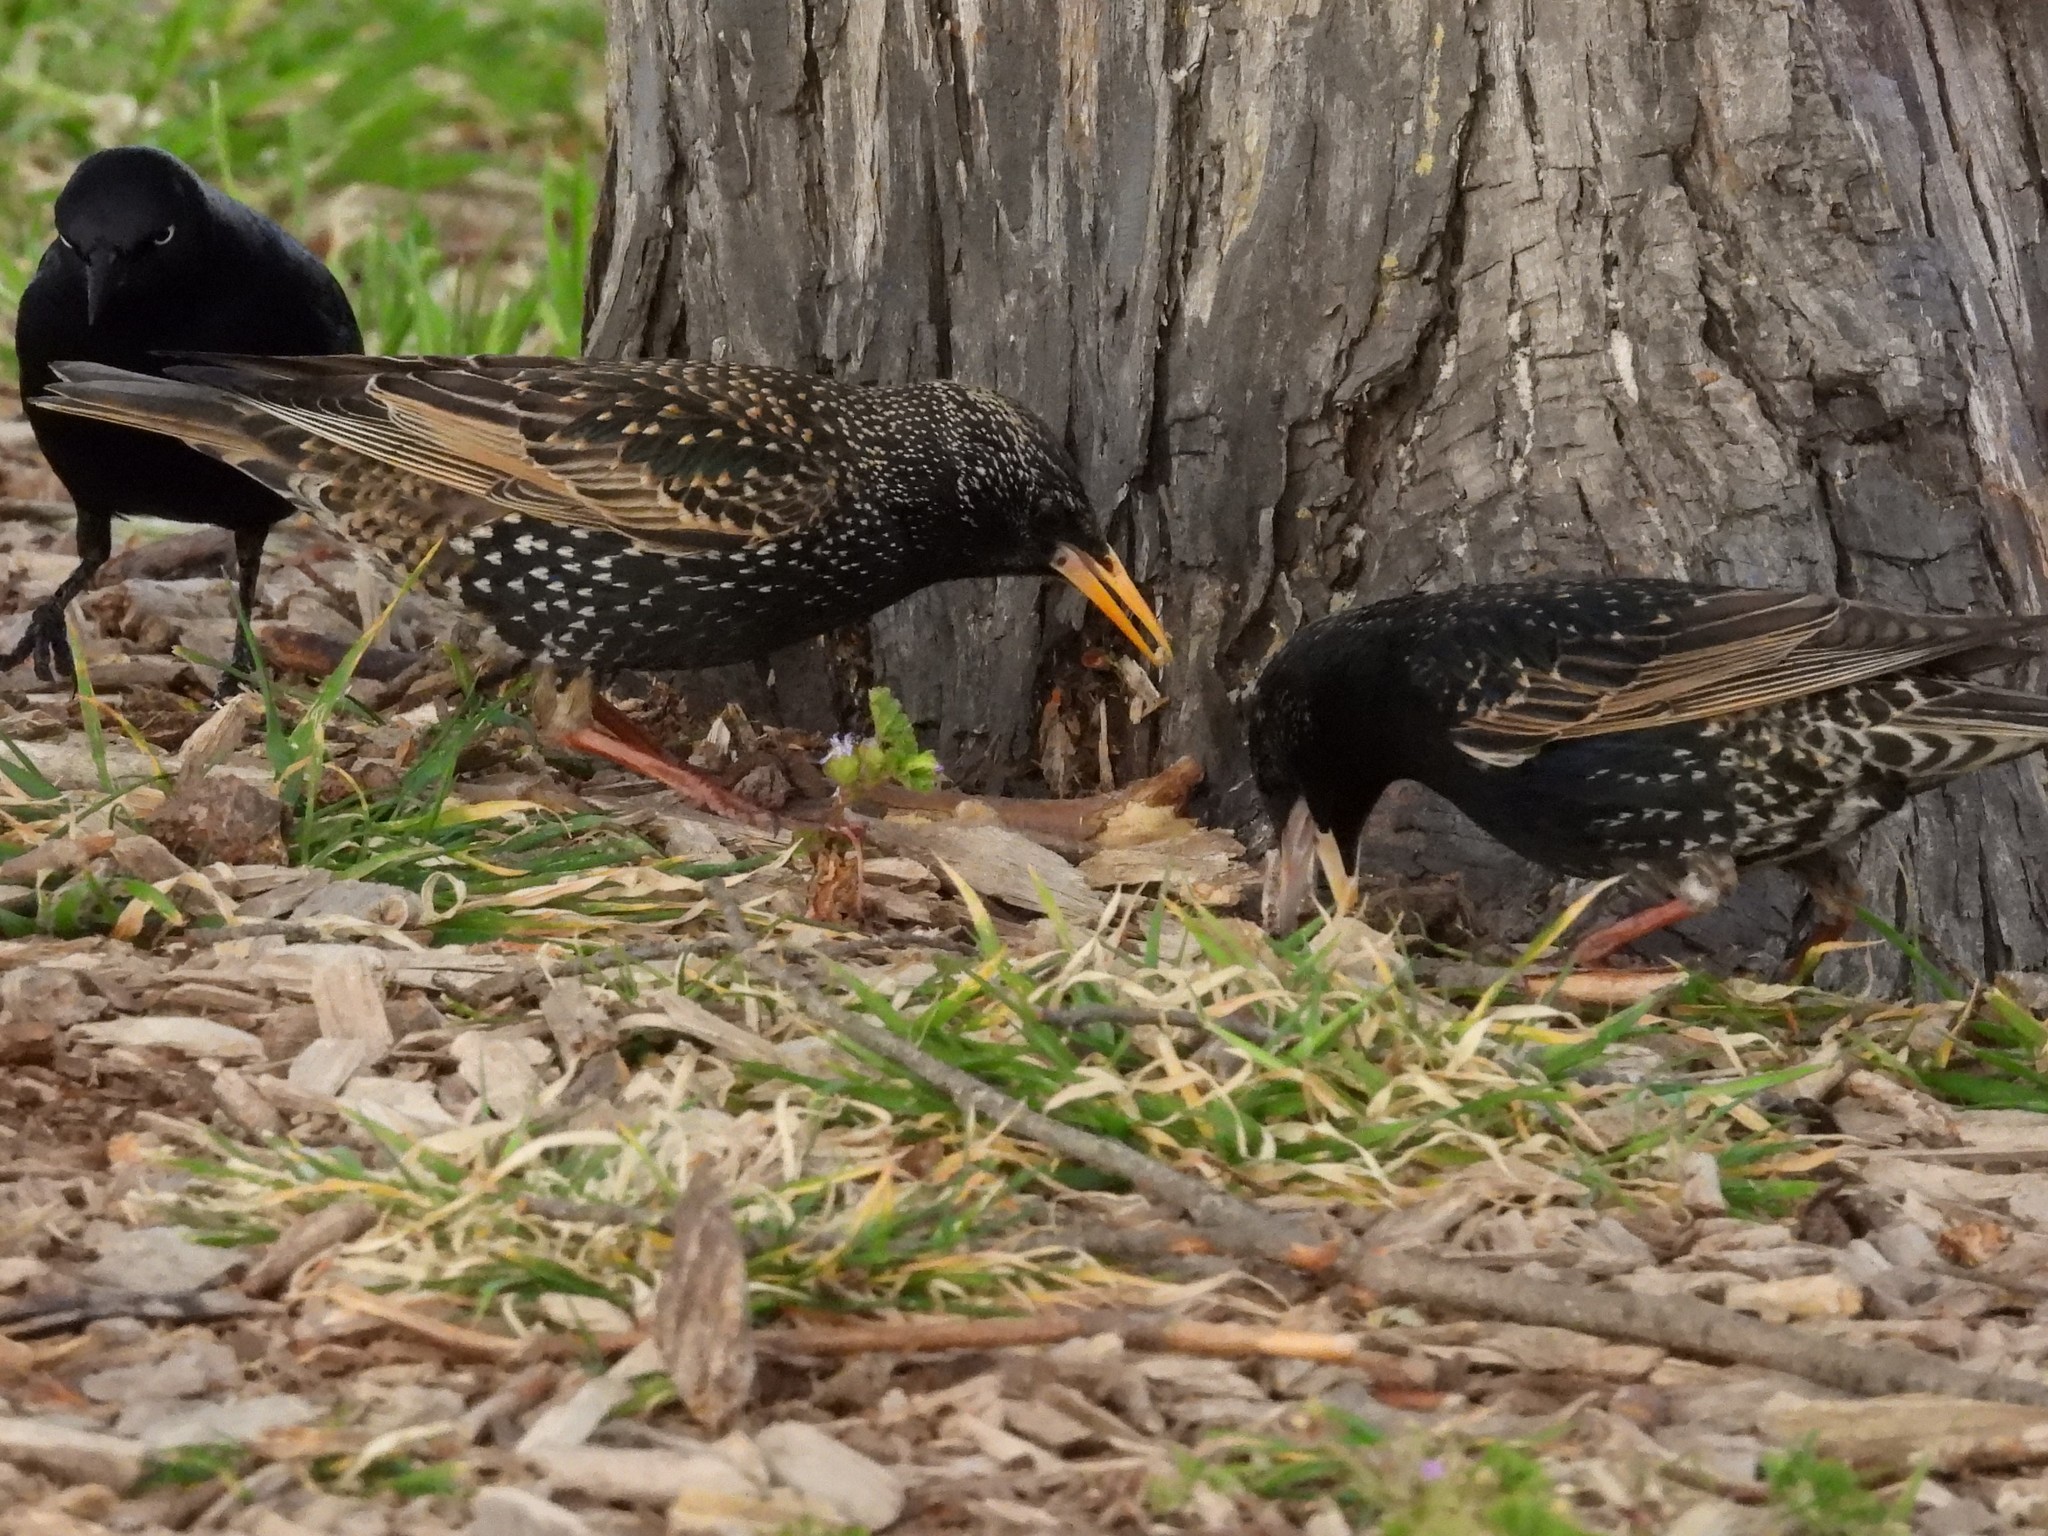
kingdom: Animalia
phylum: Chordata
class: Aves
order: Passeriformes
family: Sturnidae
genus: Sturnus
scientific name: Sturnus vulgaris
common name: Common starling
